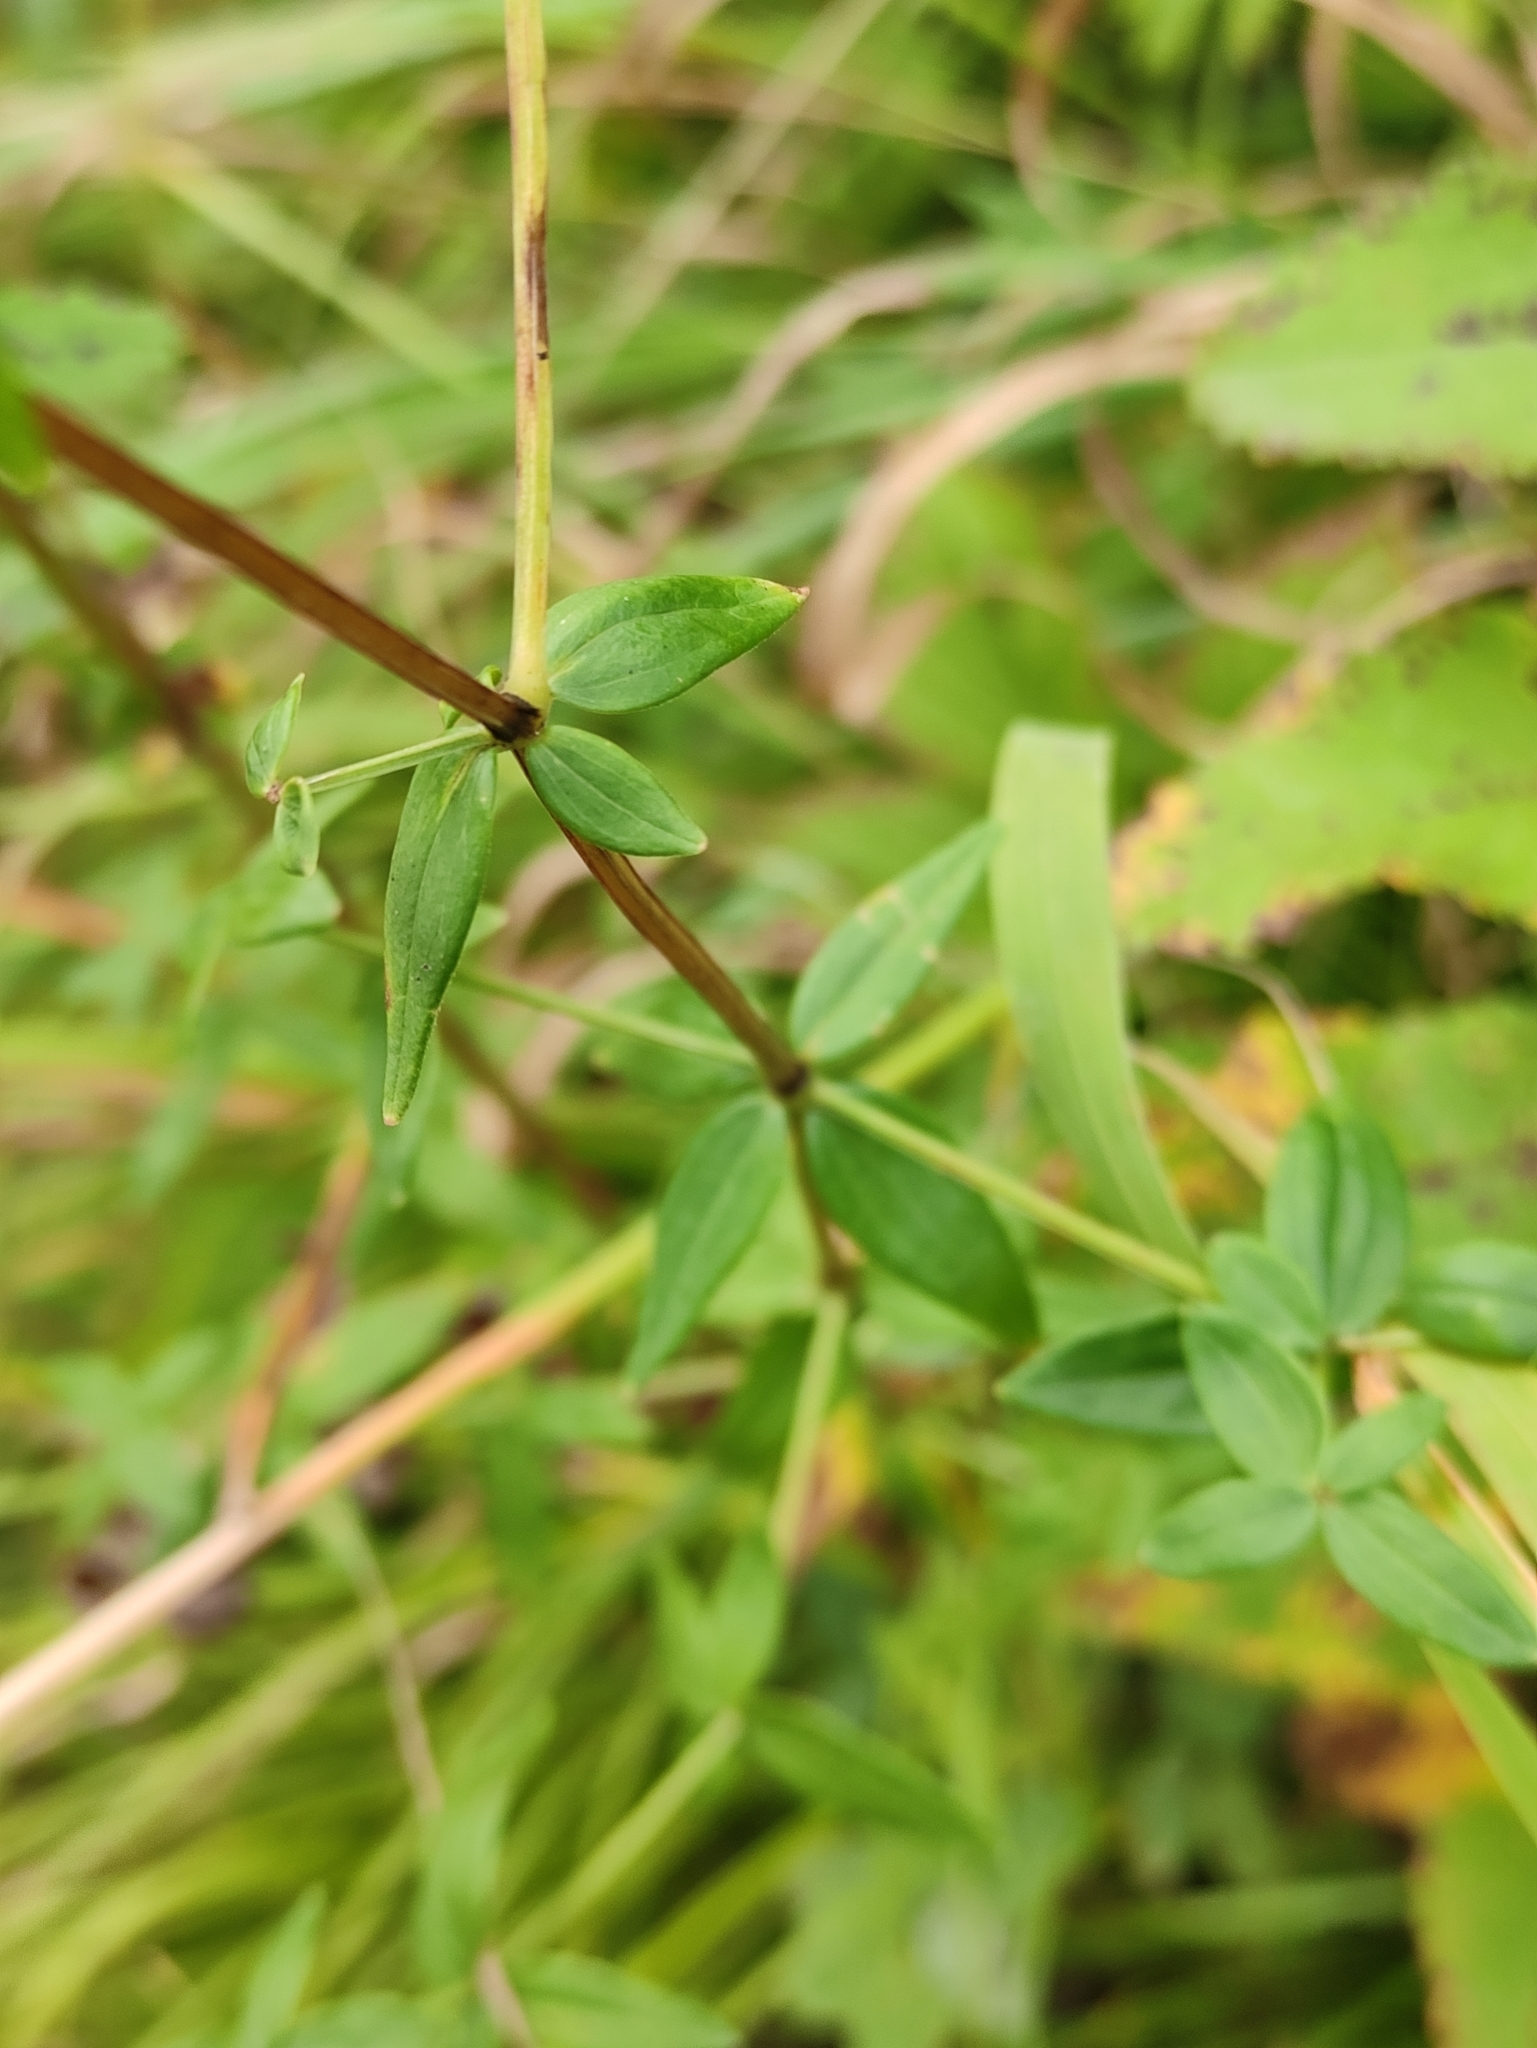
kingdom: Plantae
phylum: Tracheophyta
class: Magnoliopsida
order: Gentianales
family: Rubiaceae
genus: Galium
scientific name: Galium boreale
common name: Northern bedstraw
